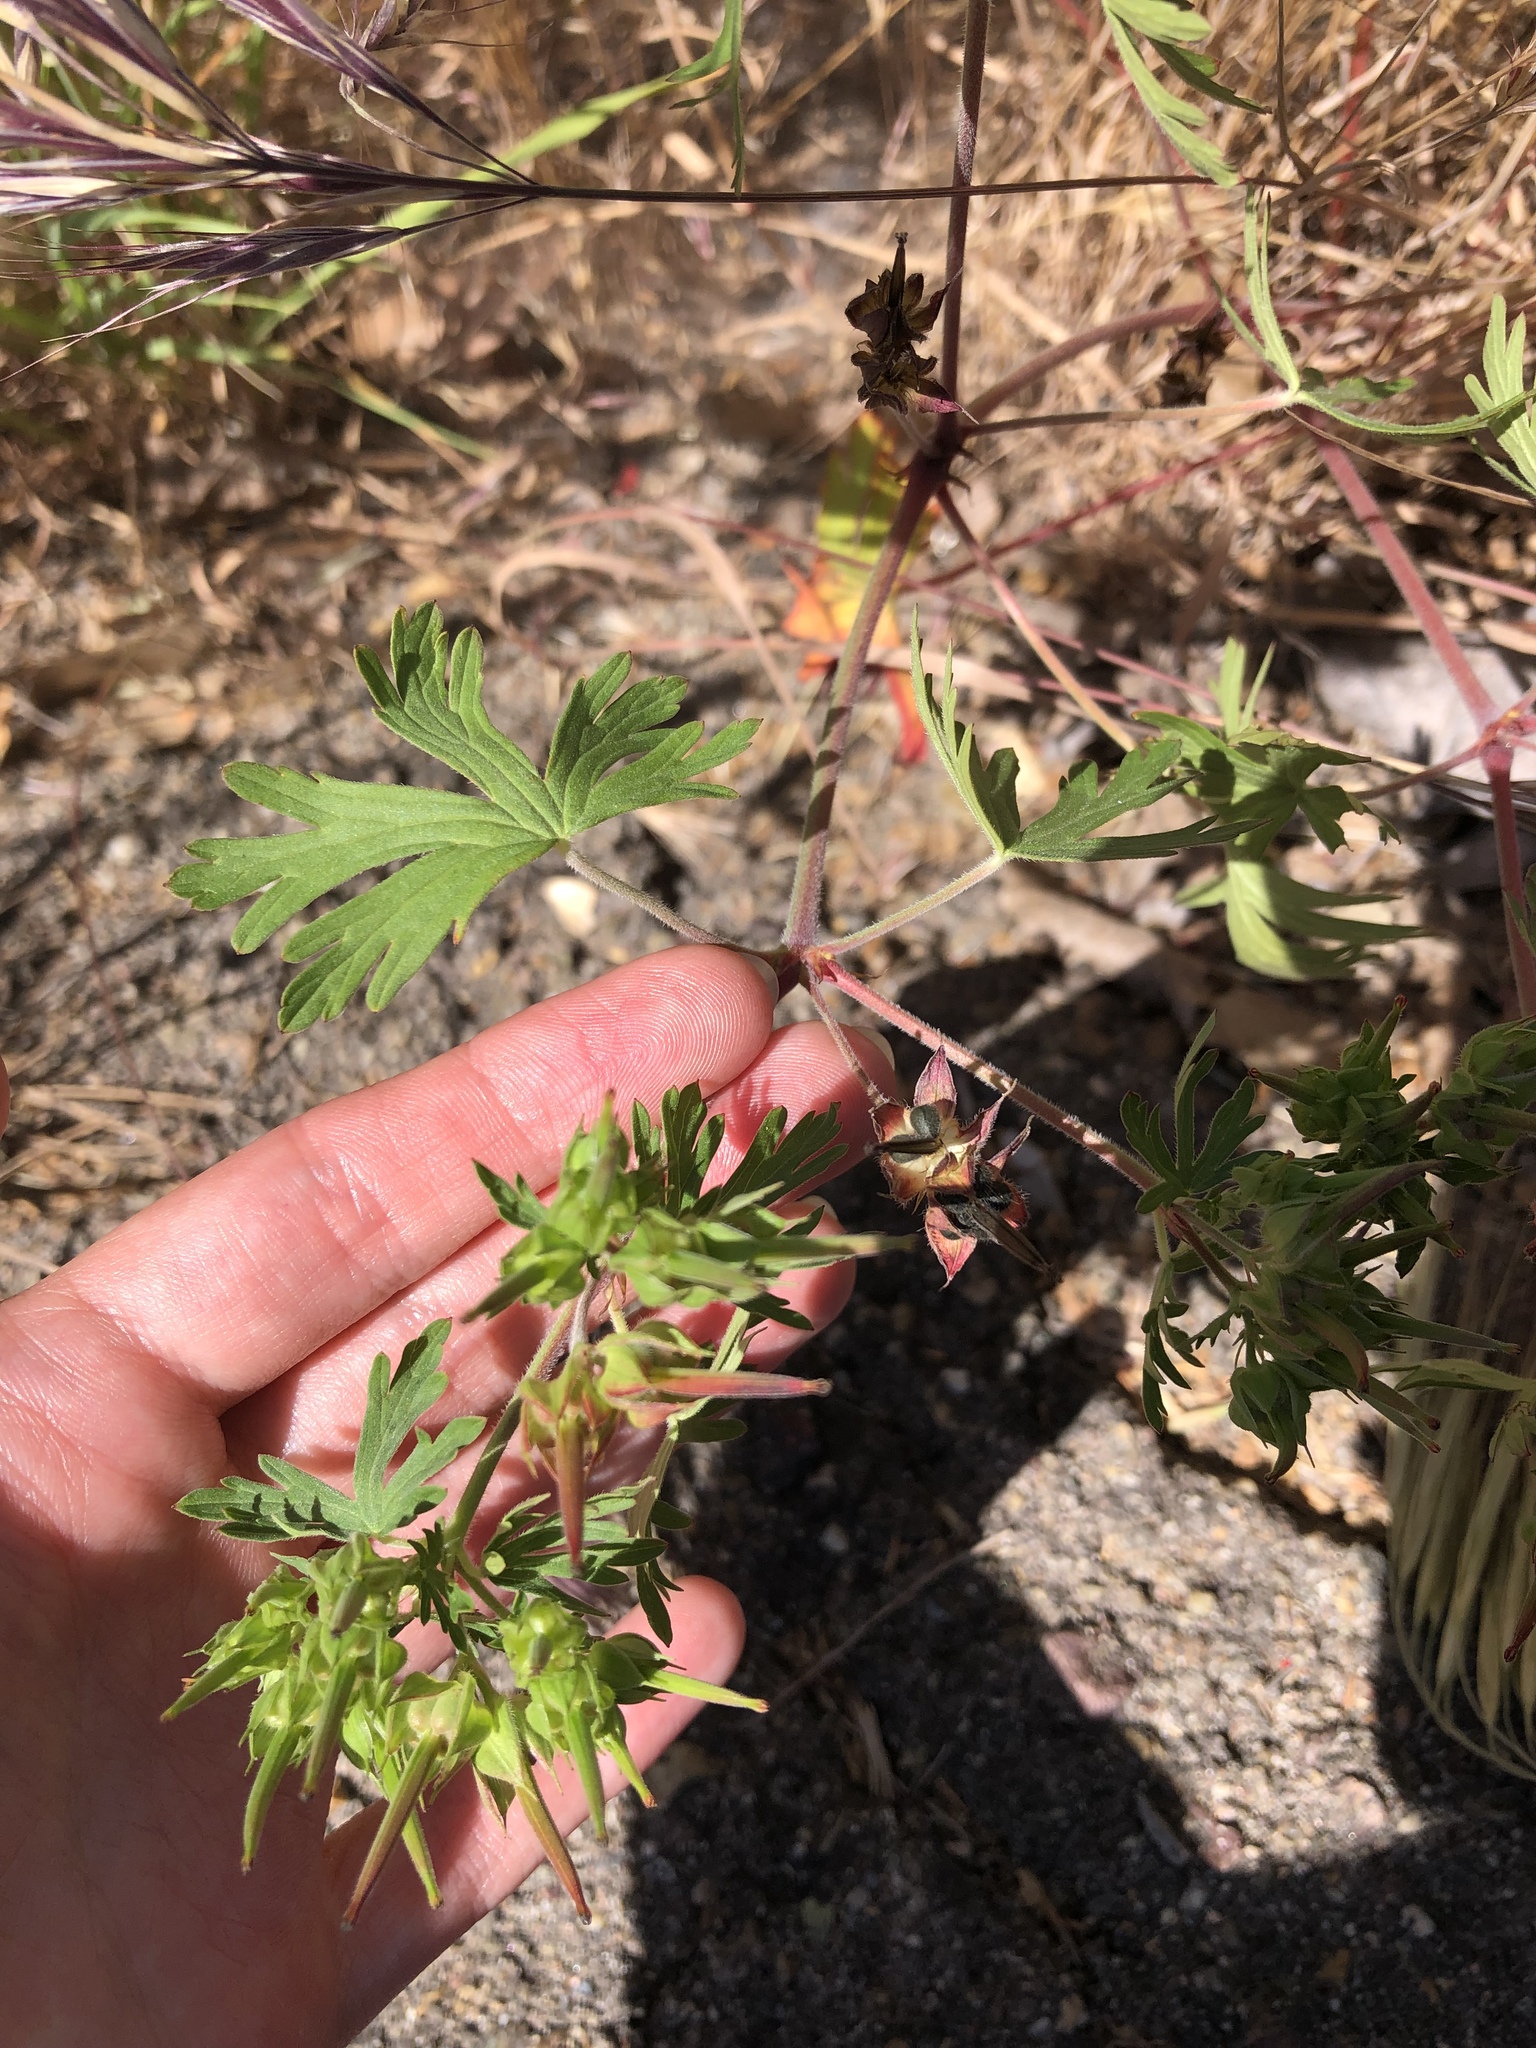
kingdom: Plantae
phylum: Tracheophyta
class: Magnoliopsida
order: Geraniales
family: Geraniaceae
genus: Geranium
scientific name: Geranium carolinianum
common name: Carolina crane's-bill
